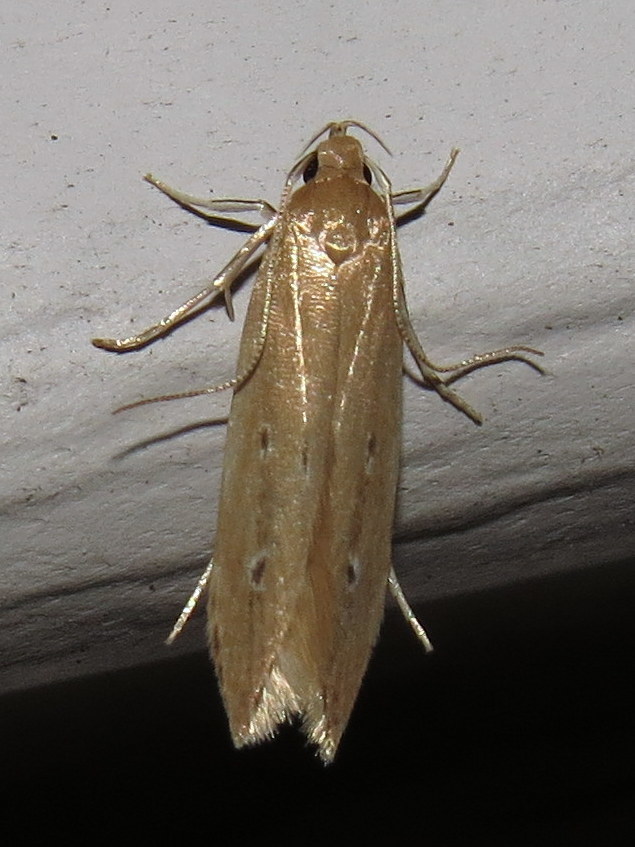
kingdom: Animalia
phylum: Arthropoda
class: Insecta
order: Lepidoptera
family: Cosmopterigidae
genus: Limnaecia
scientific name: Limnaecia phragmitella
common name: Bulrush cosmet
